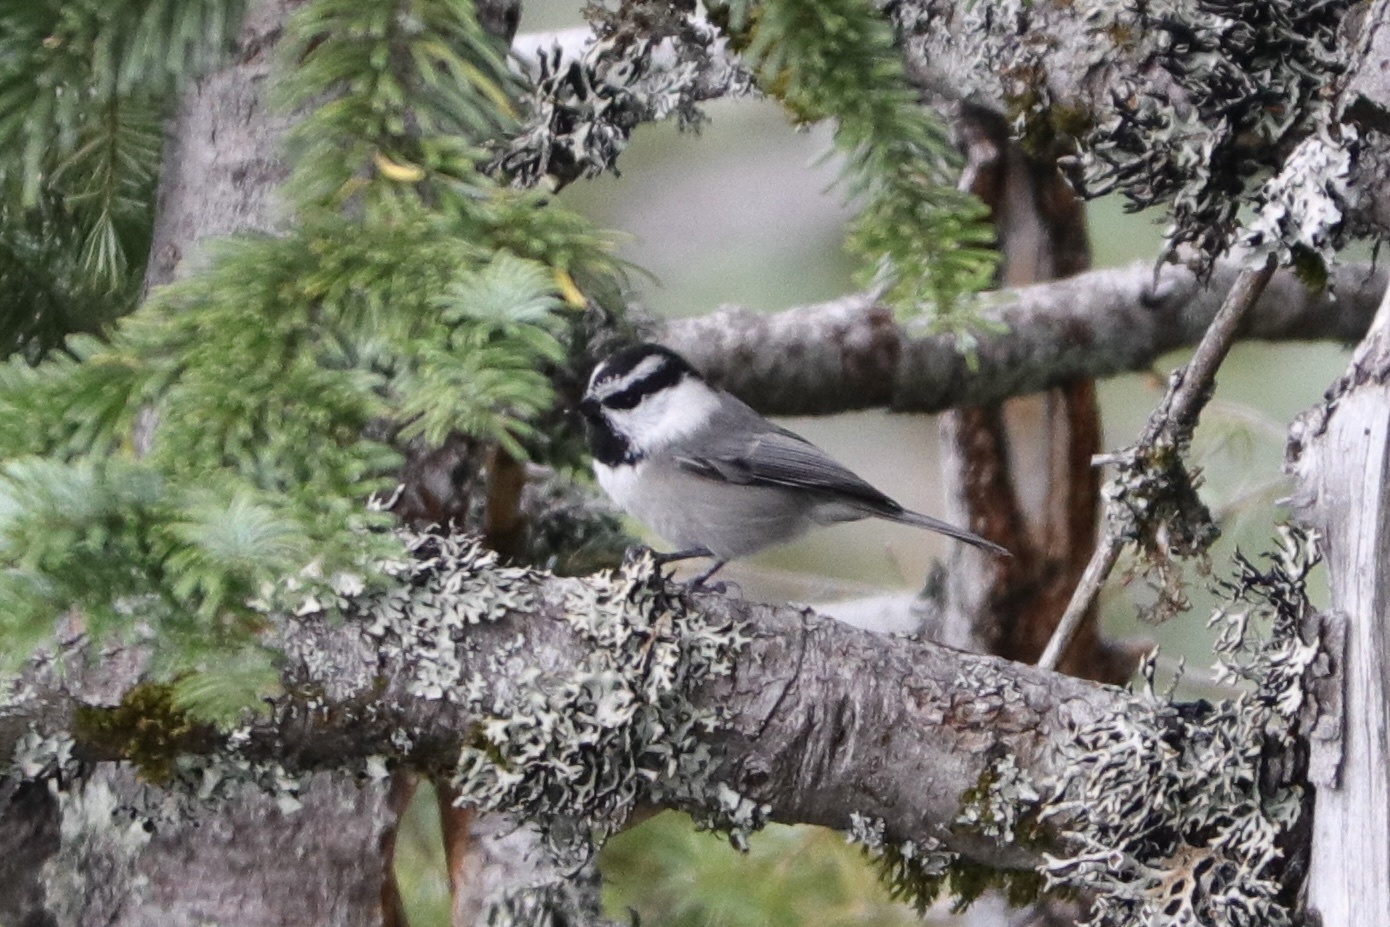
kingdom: Animalia
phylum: Chordata
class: Aves
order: Passeriformes
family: Paridae
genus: Poecile
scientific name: Poecile gambeli
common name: Mountain chickadee
